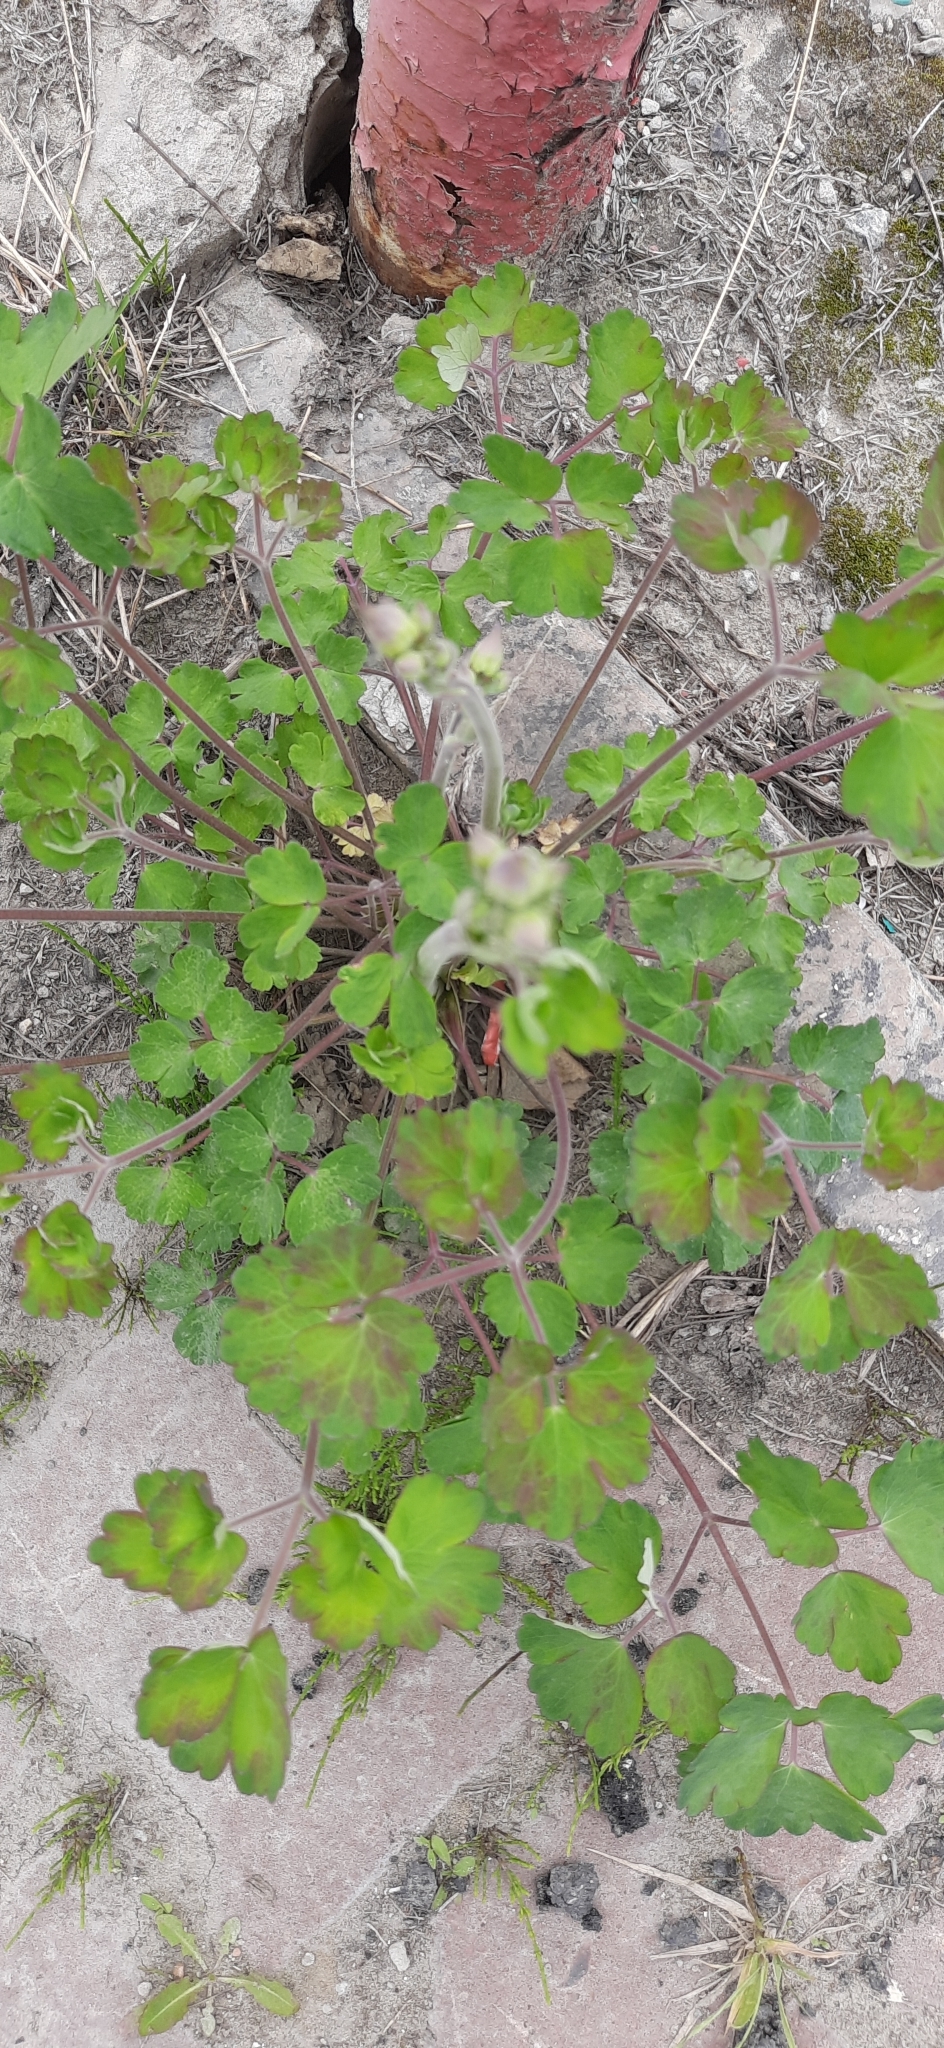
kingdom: Plantae
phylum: Tracheophyta
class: Magnoliopsida
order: Ranunculales
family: Ranunculaceae
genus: Aquilegia
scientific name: Aquilegia vulgaris
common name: Columbine
